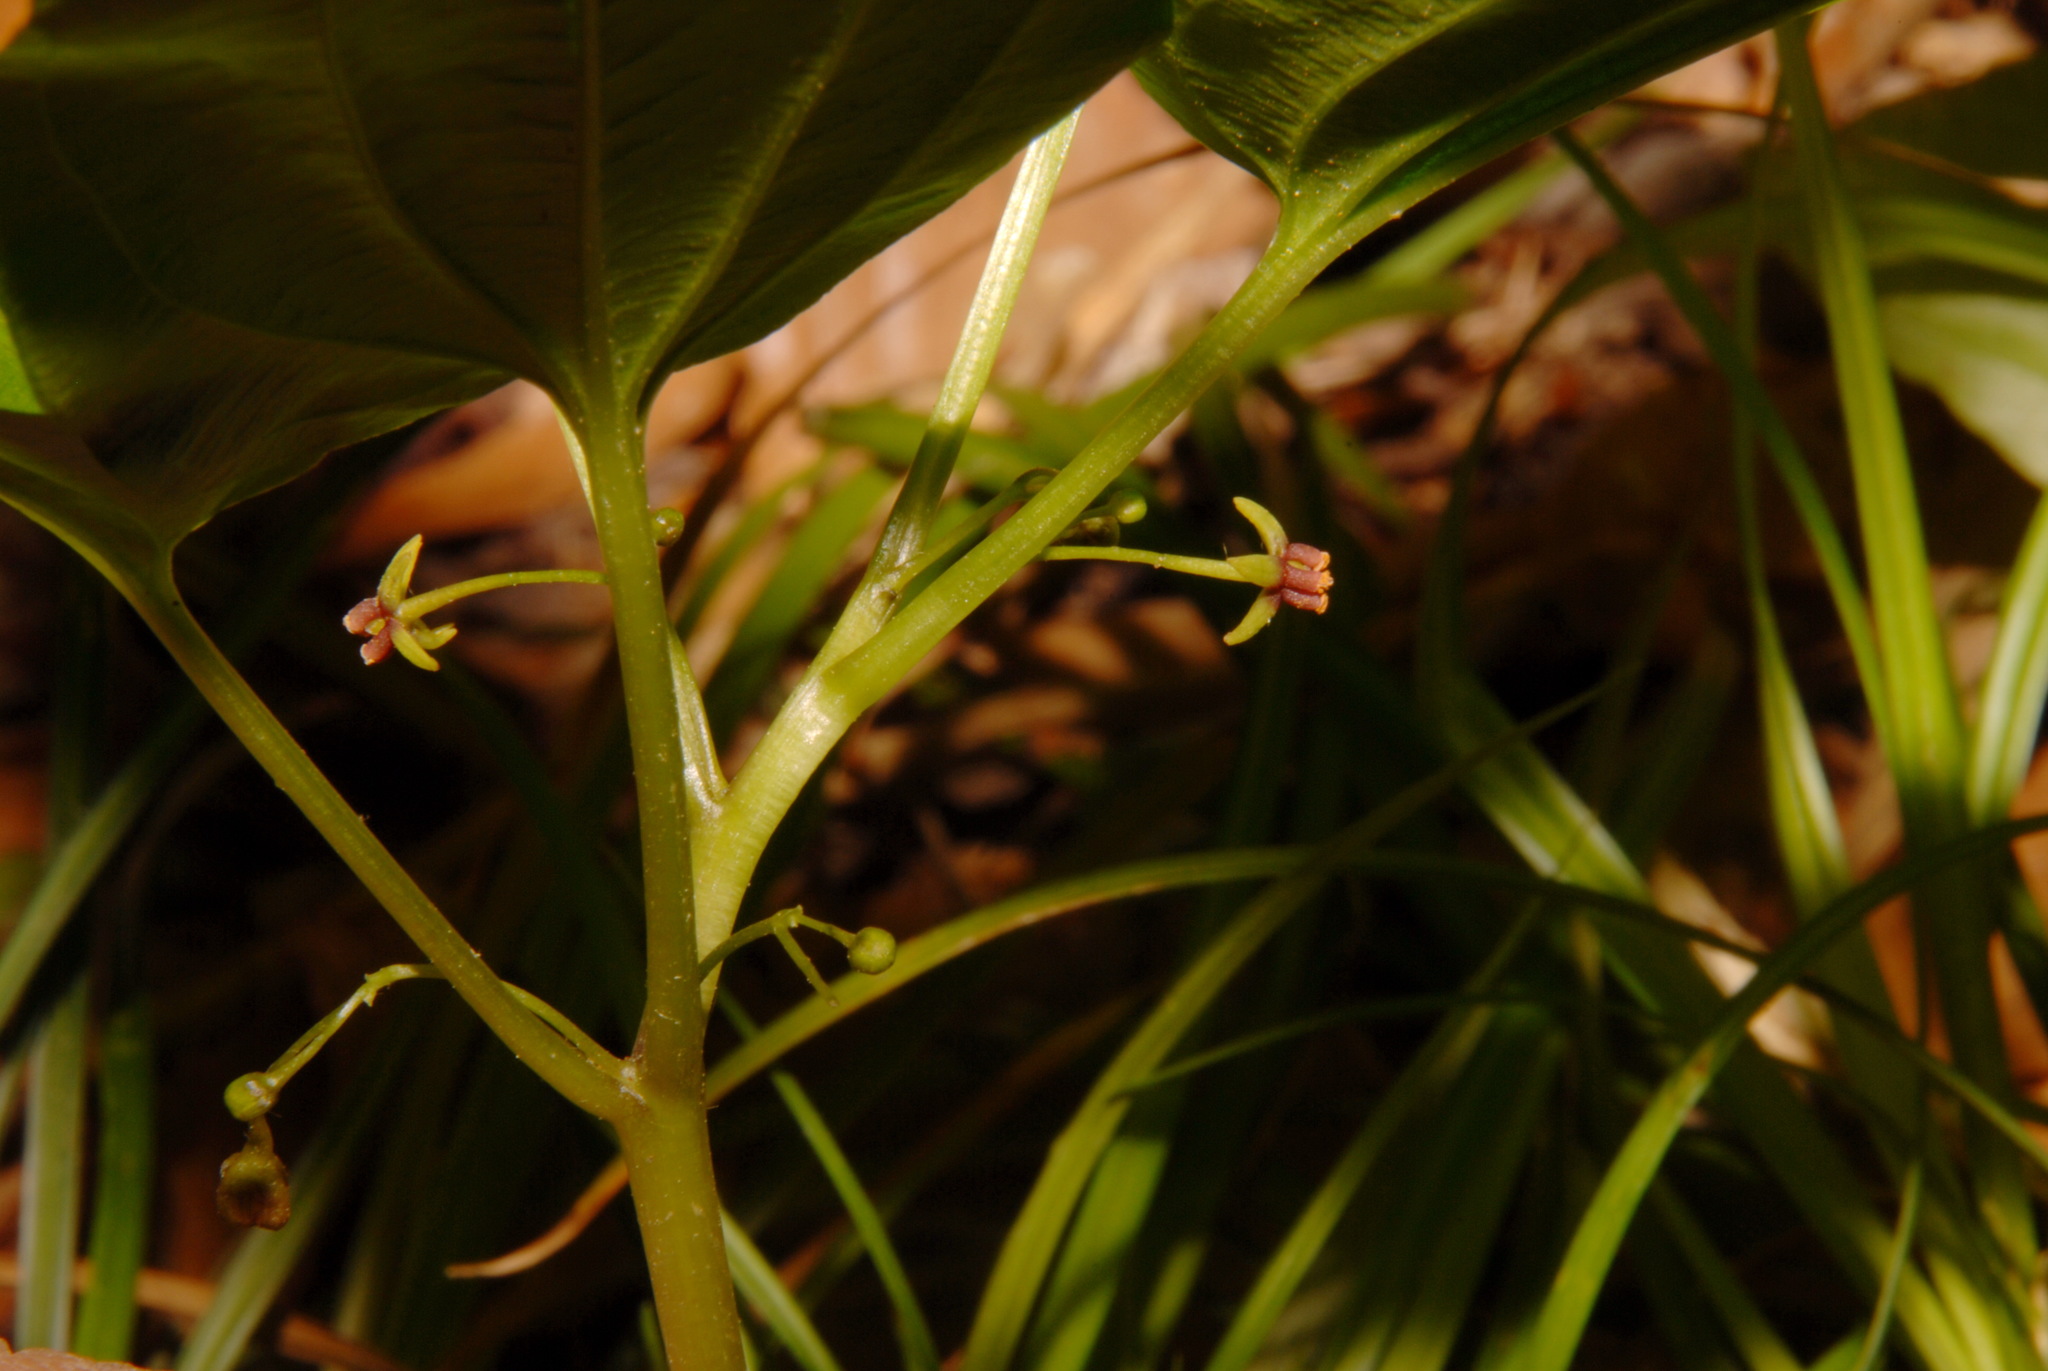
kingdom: Plantae
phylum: Tracheophyta
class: Liliopsida
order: Pandanales
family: Stemonaceae
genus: Croomia
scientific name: Croomia pauciflora
